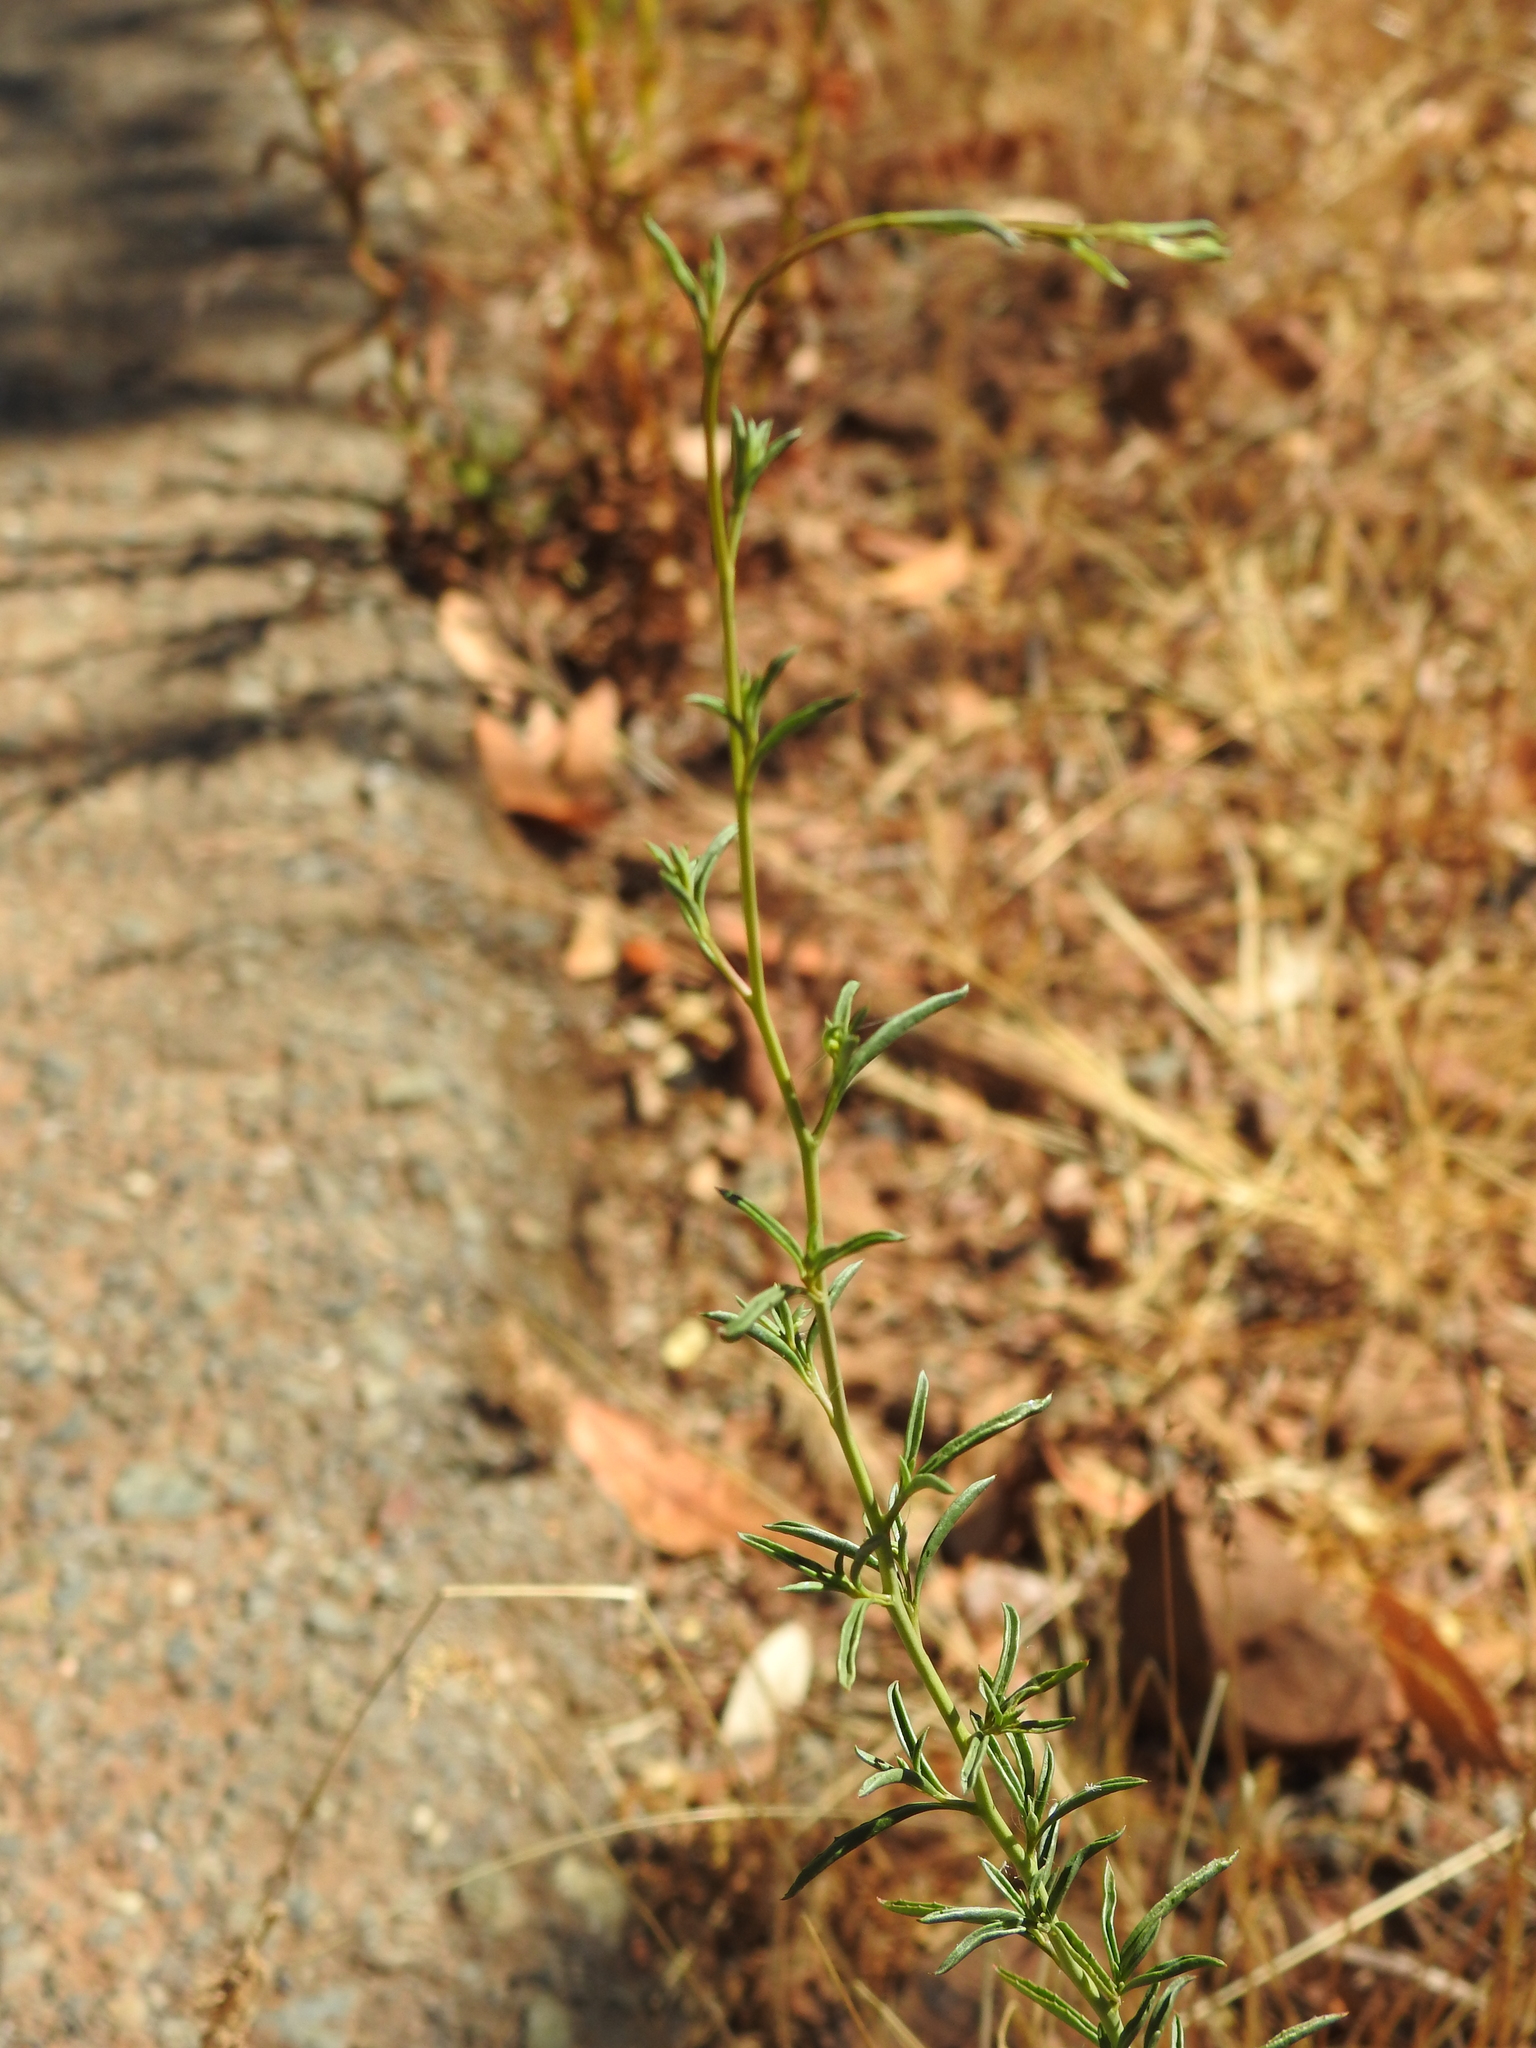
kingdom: Plantae
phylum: Tracheophyta
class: Magnoliopsida
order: Myrtales
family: Onagraceae
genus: Epilobium
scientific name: Epilobium brachycarpum
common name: Annual willowherb
